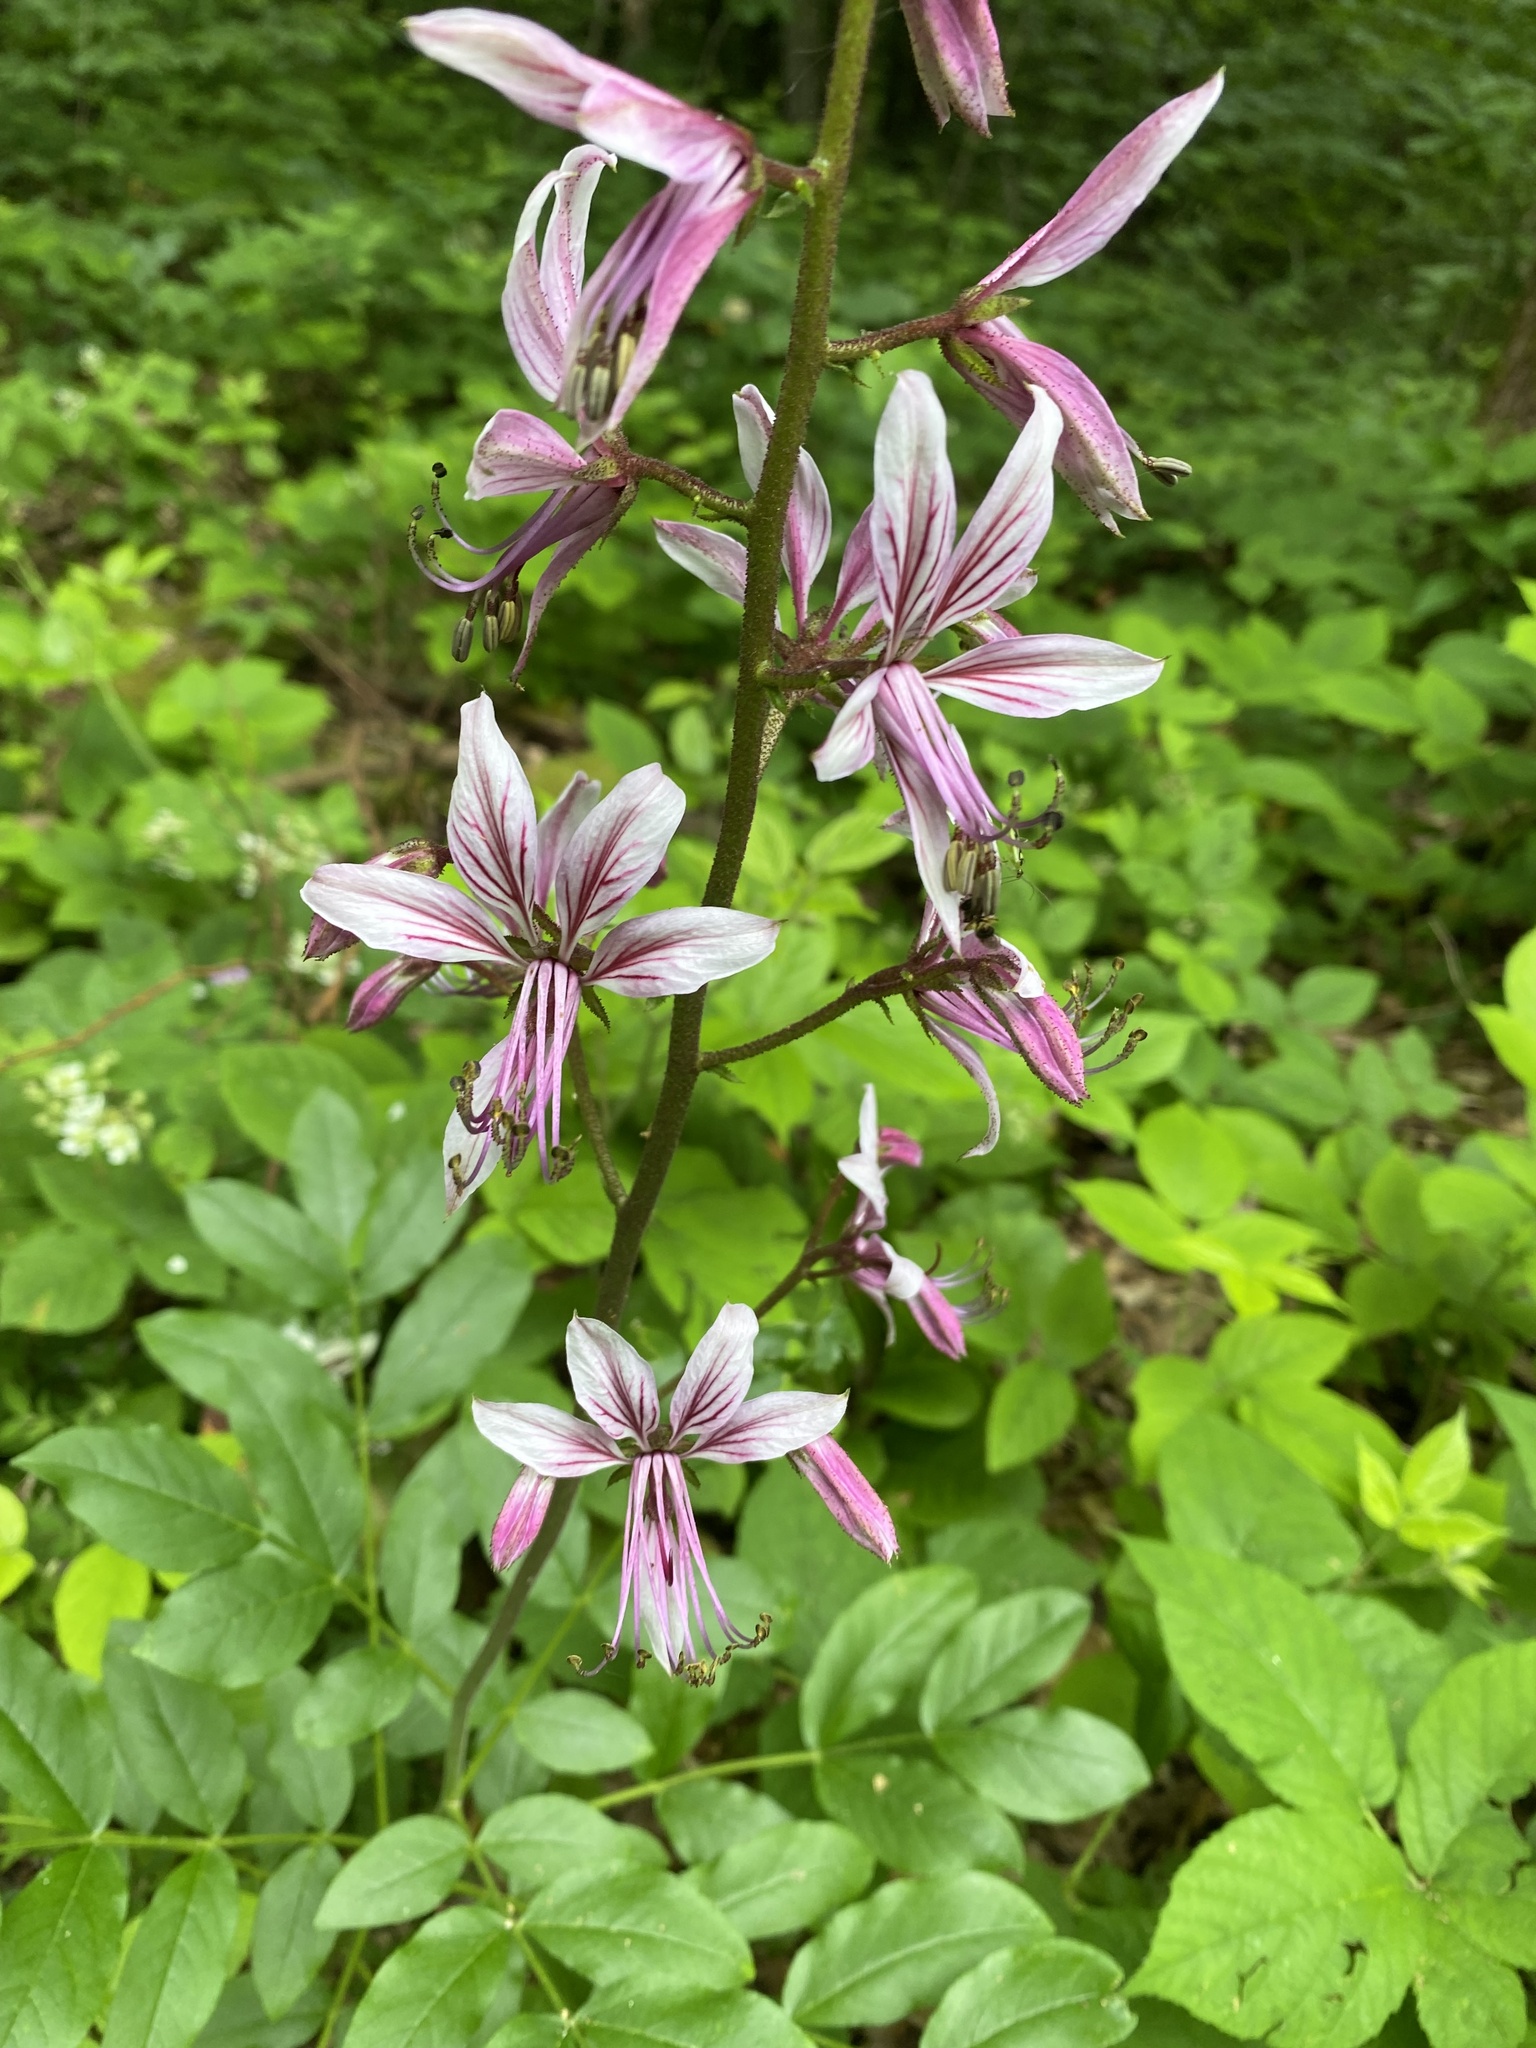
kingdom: Plantae
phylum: Tracheophyta
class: Magnoliopsida
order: Sapindales
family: Rutaceae
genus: Dictamnus
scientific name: Dictamnus albus
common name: Gasplant
